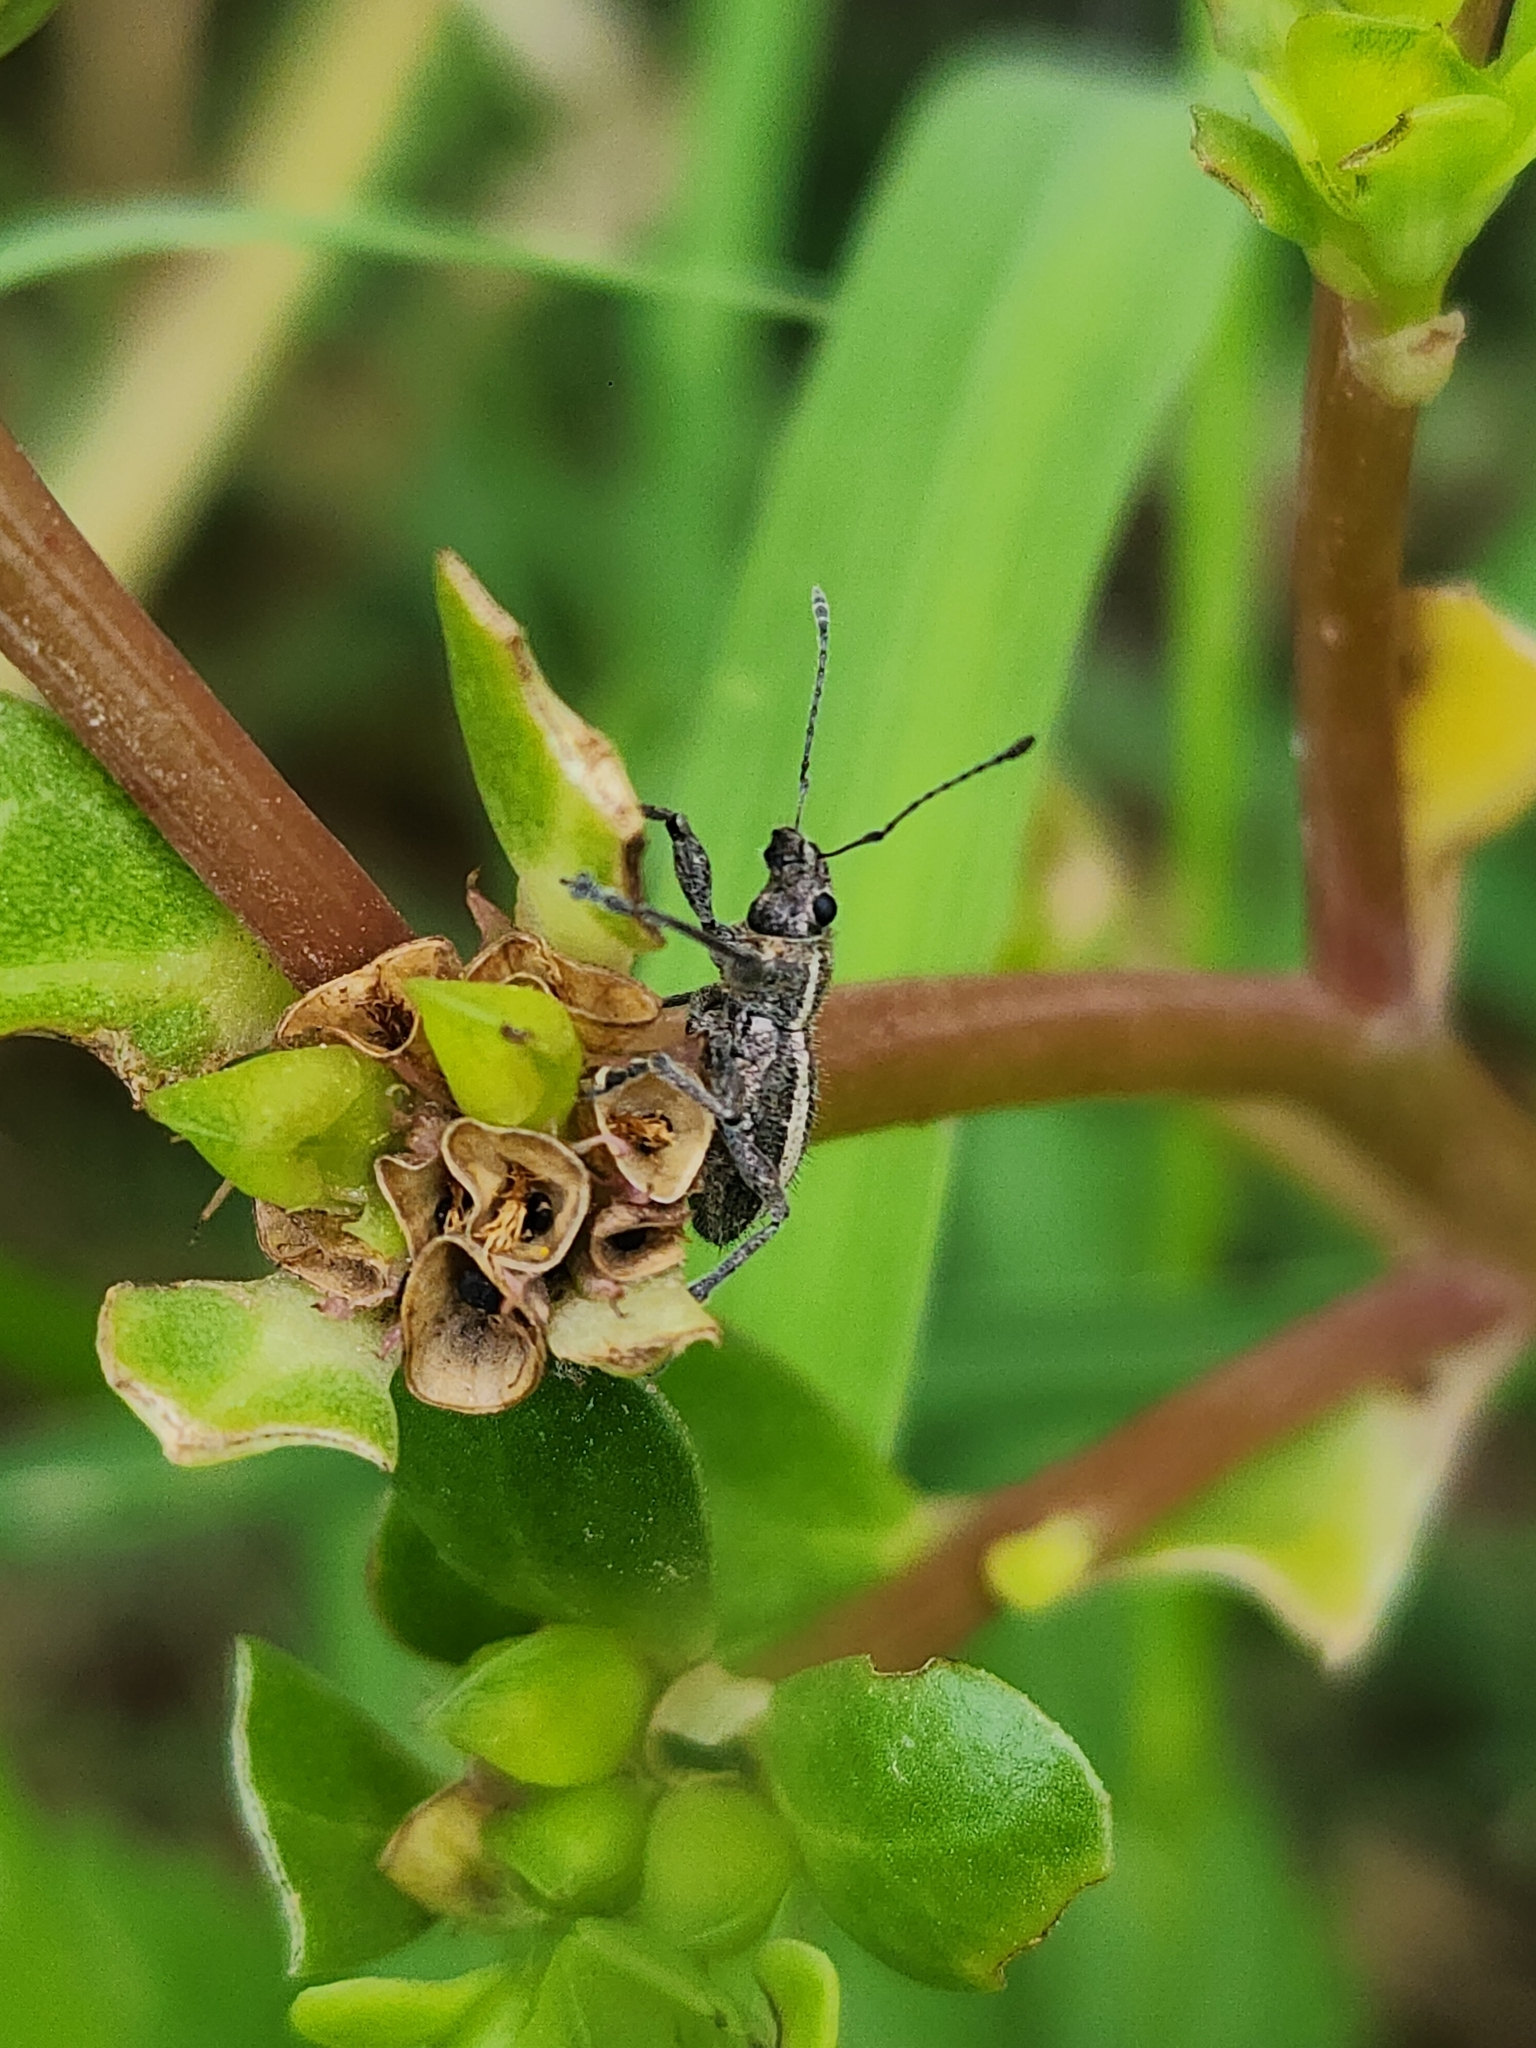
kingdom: Animalia
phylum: Arthropoda
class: Insecta
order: Coleoptera
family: Curculionidae
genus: Naupactus
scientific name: Naupactus tucumanensis
